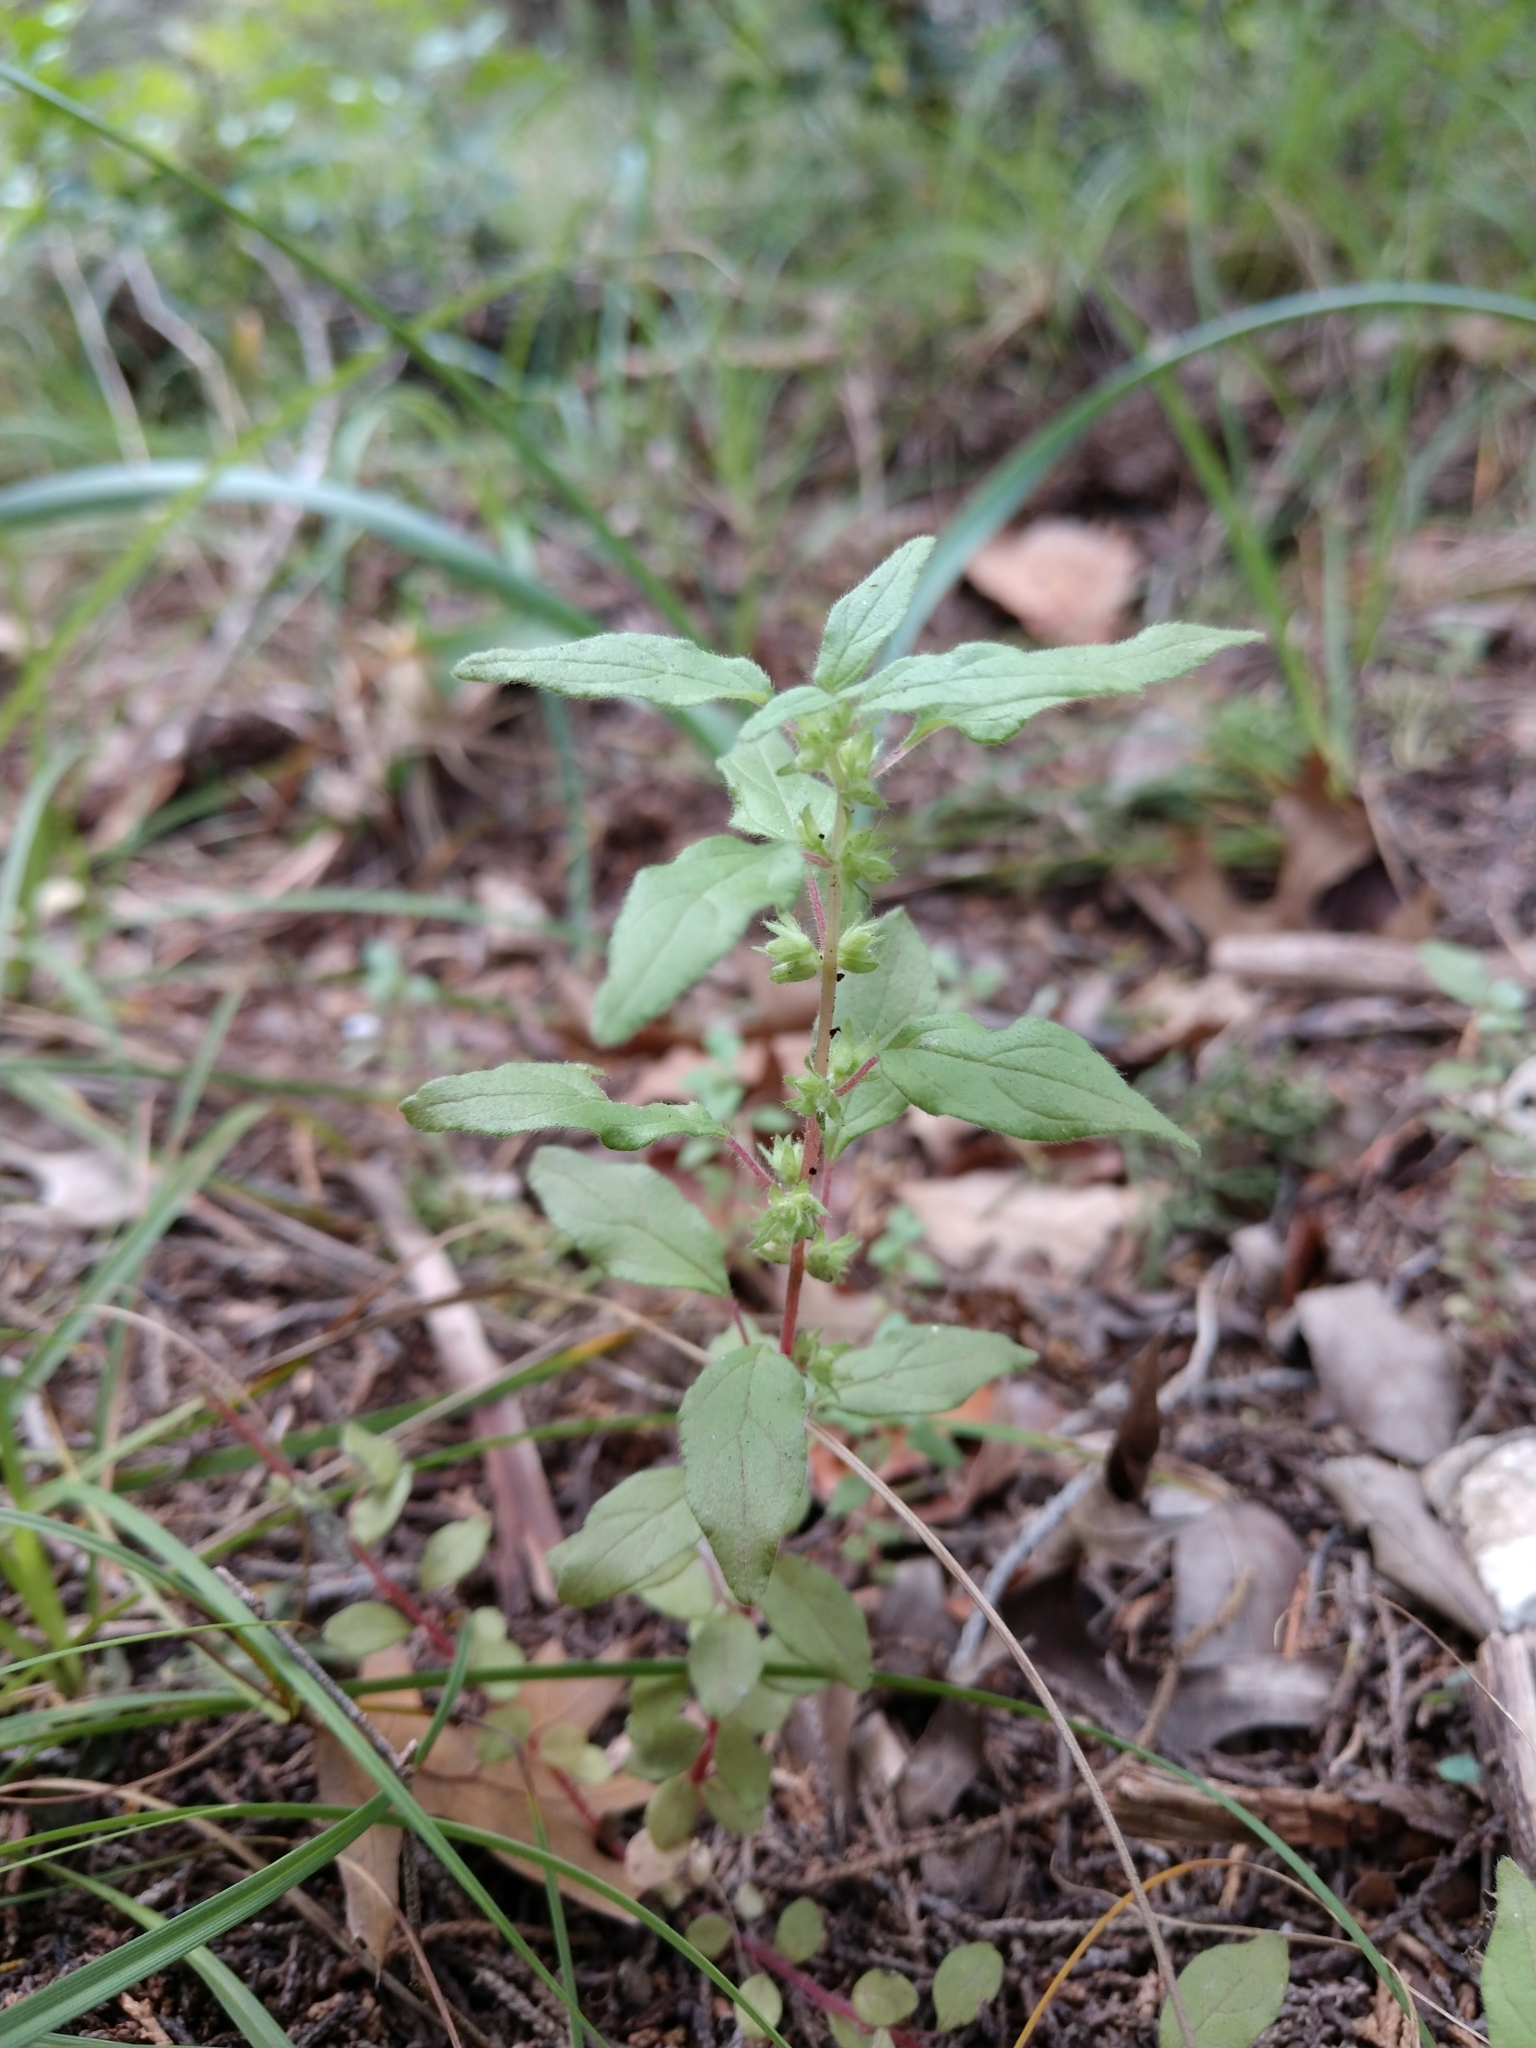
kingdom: Plantae
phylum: Tracheophyta
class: Magnoliopsida
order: Rosales
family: Urticaceae
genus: Parietaria
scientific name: Parietaria pensylvanica
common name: Pennsylvania pellitory
